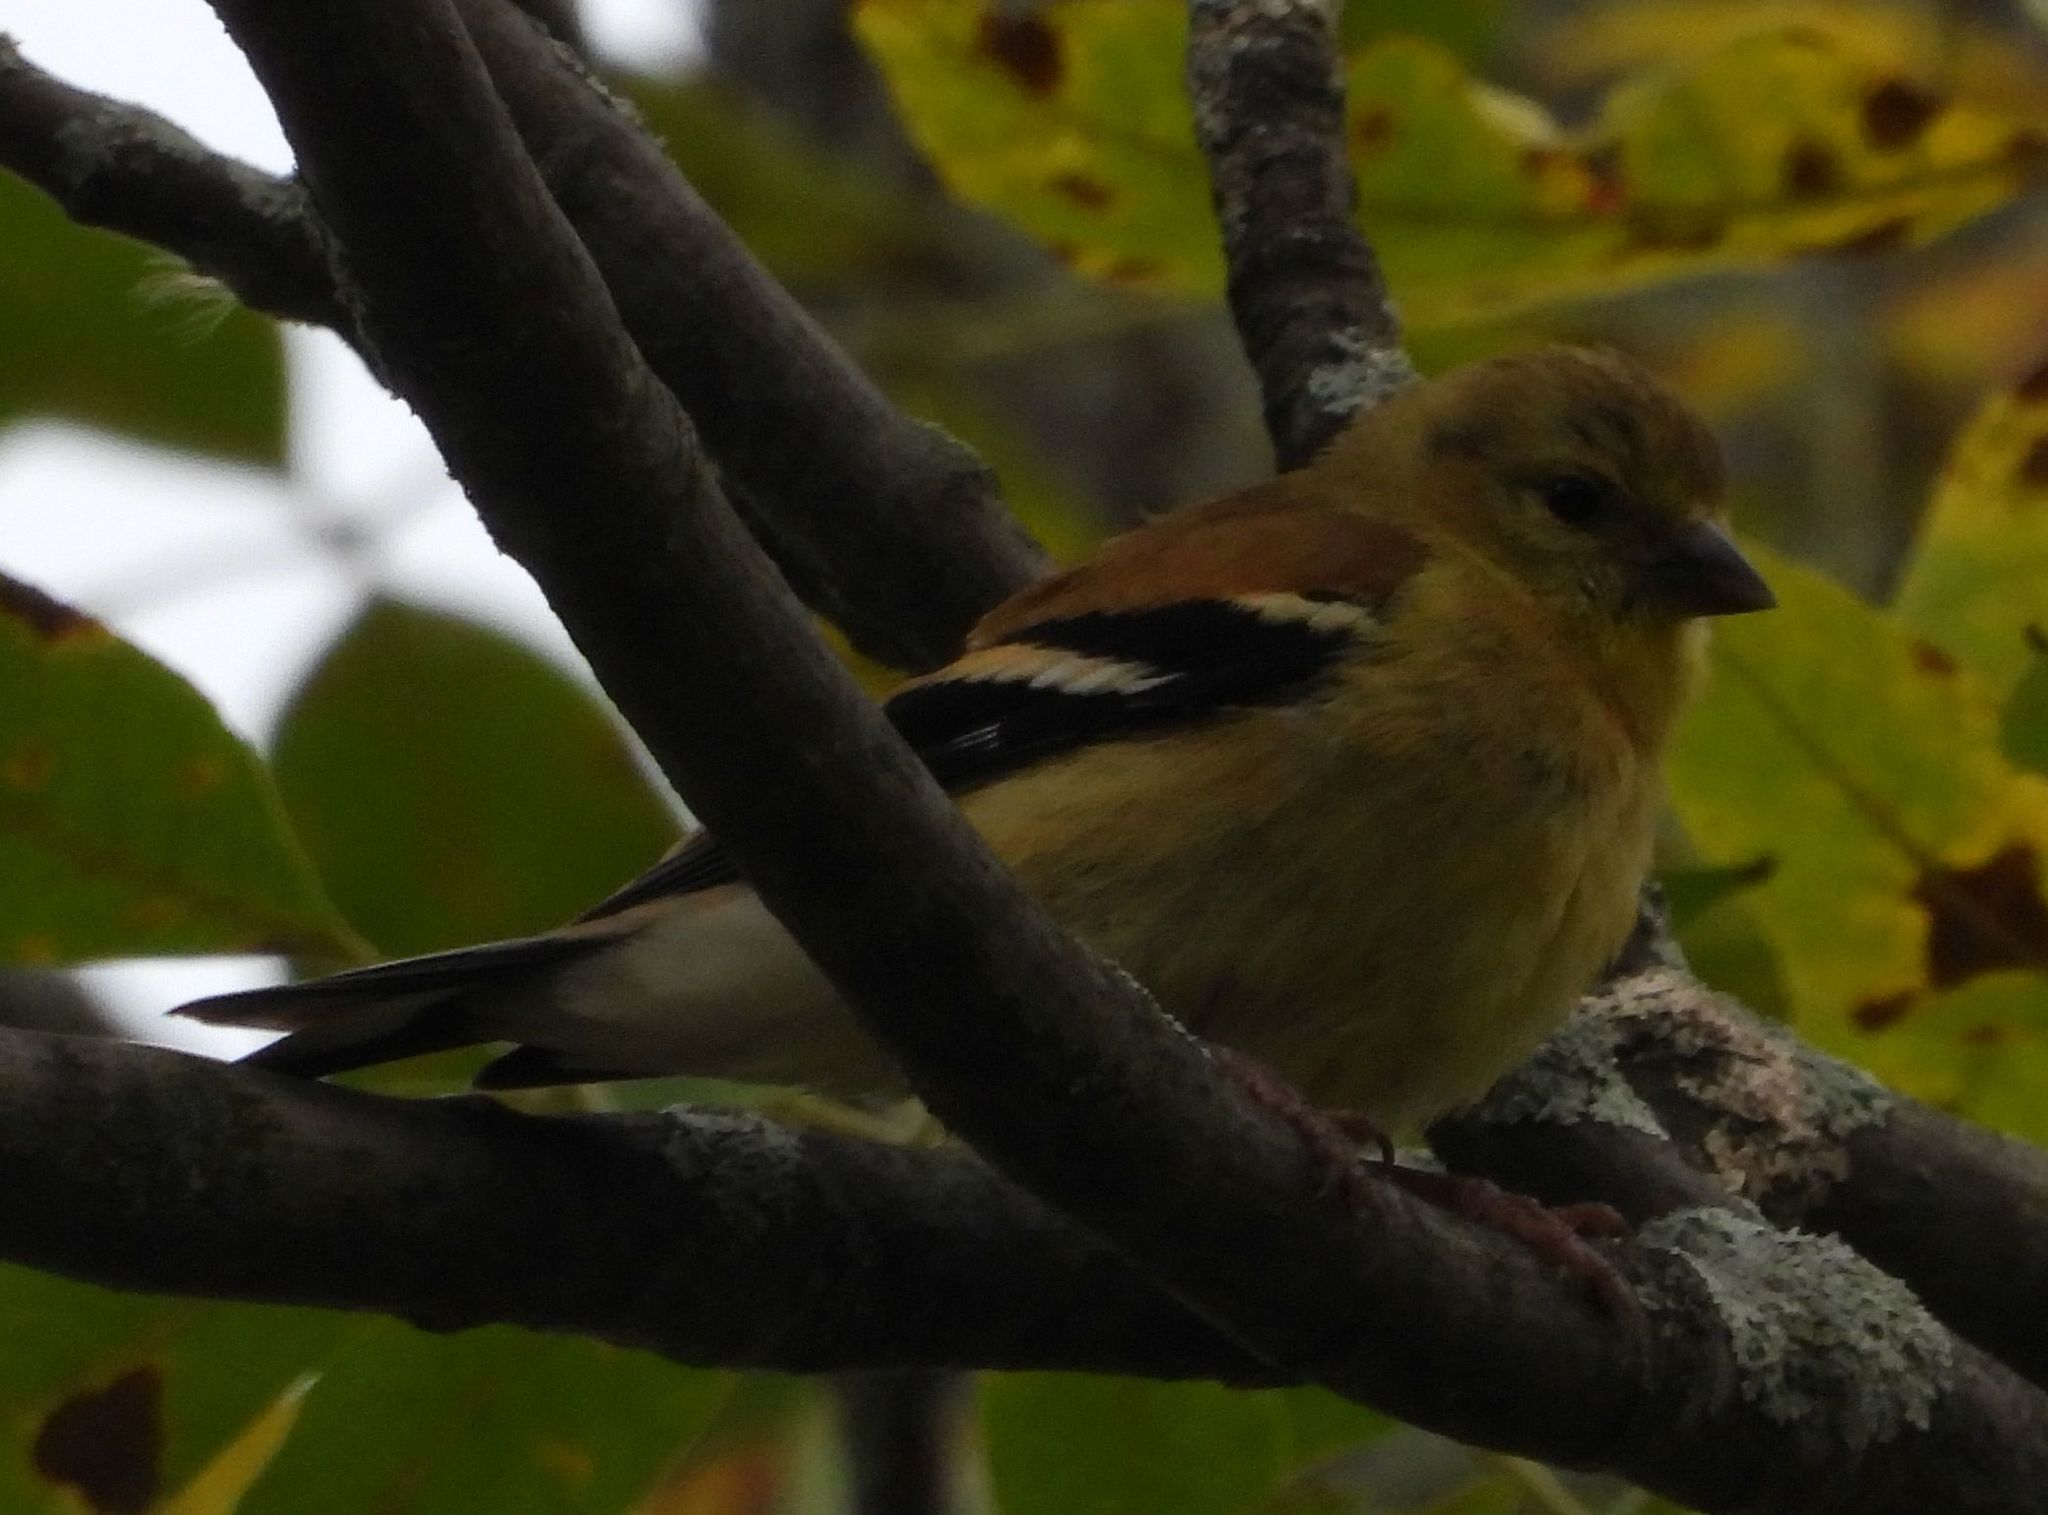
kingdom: Animalia
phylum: Chordata
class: Aves
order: Passeriformes
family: Fringillidae
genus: Spinus
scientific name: Spinus tristis
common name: American goldfinch
